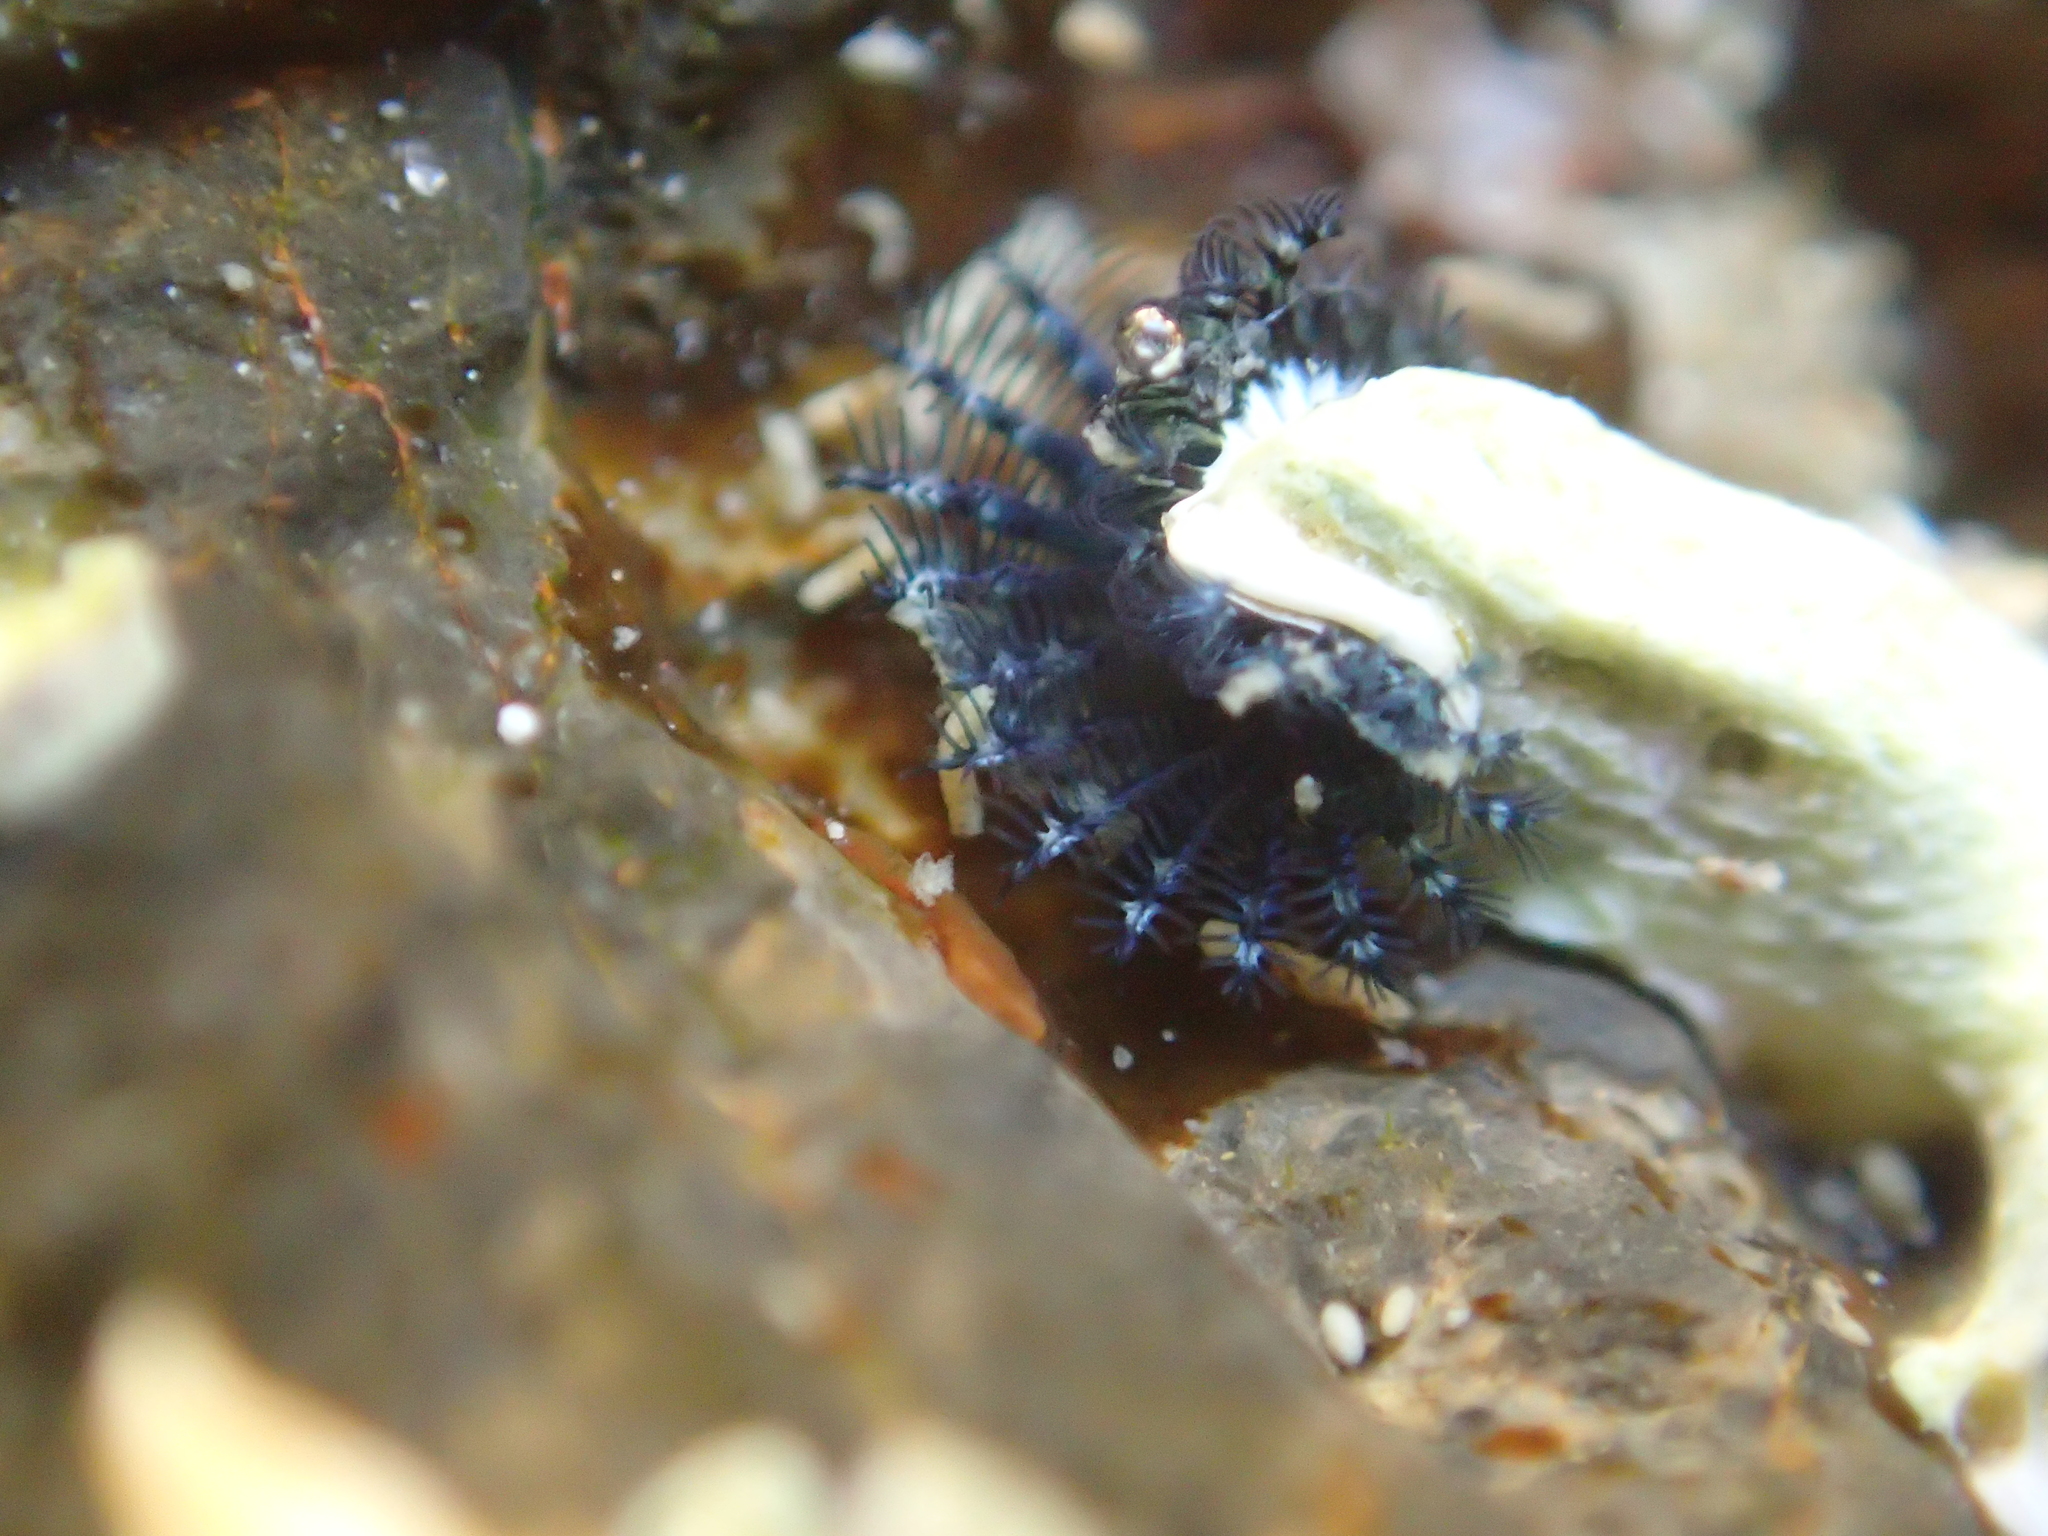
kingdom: Animalia
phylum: Annelida
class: Polychaeta
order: Sabellida
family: Serpulidae
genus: Spirobranchus
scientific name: Spirobranchus cariniferus
